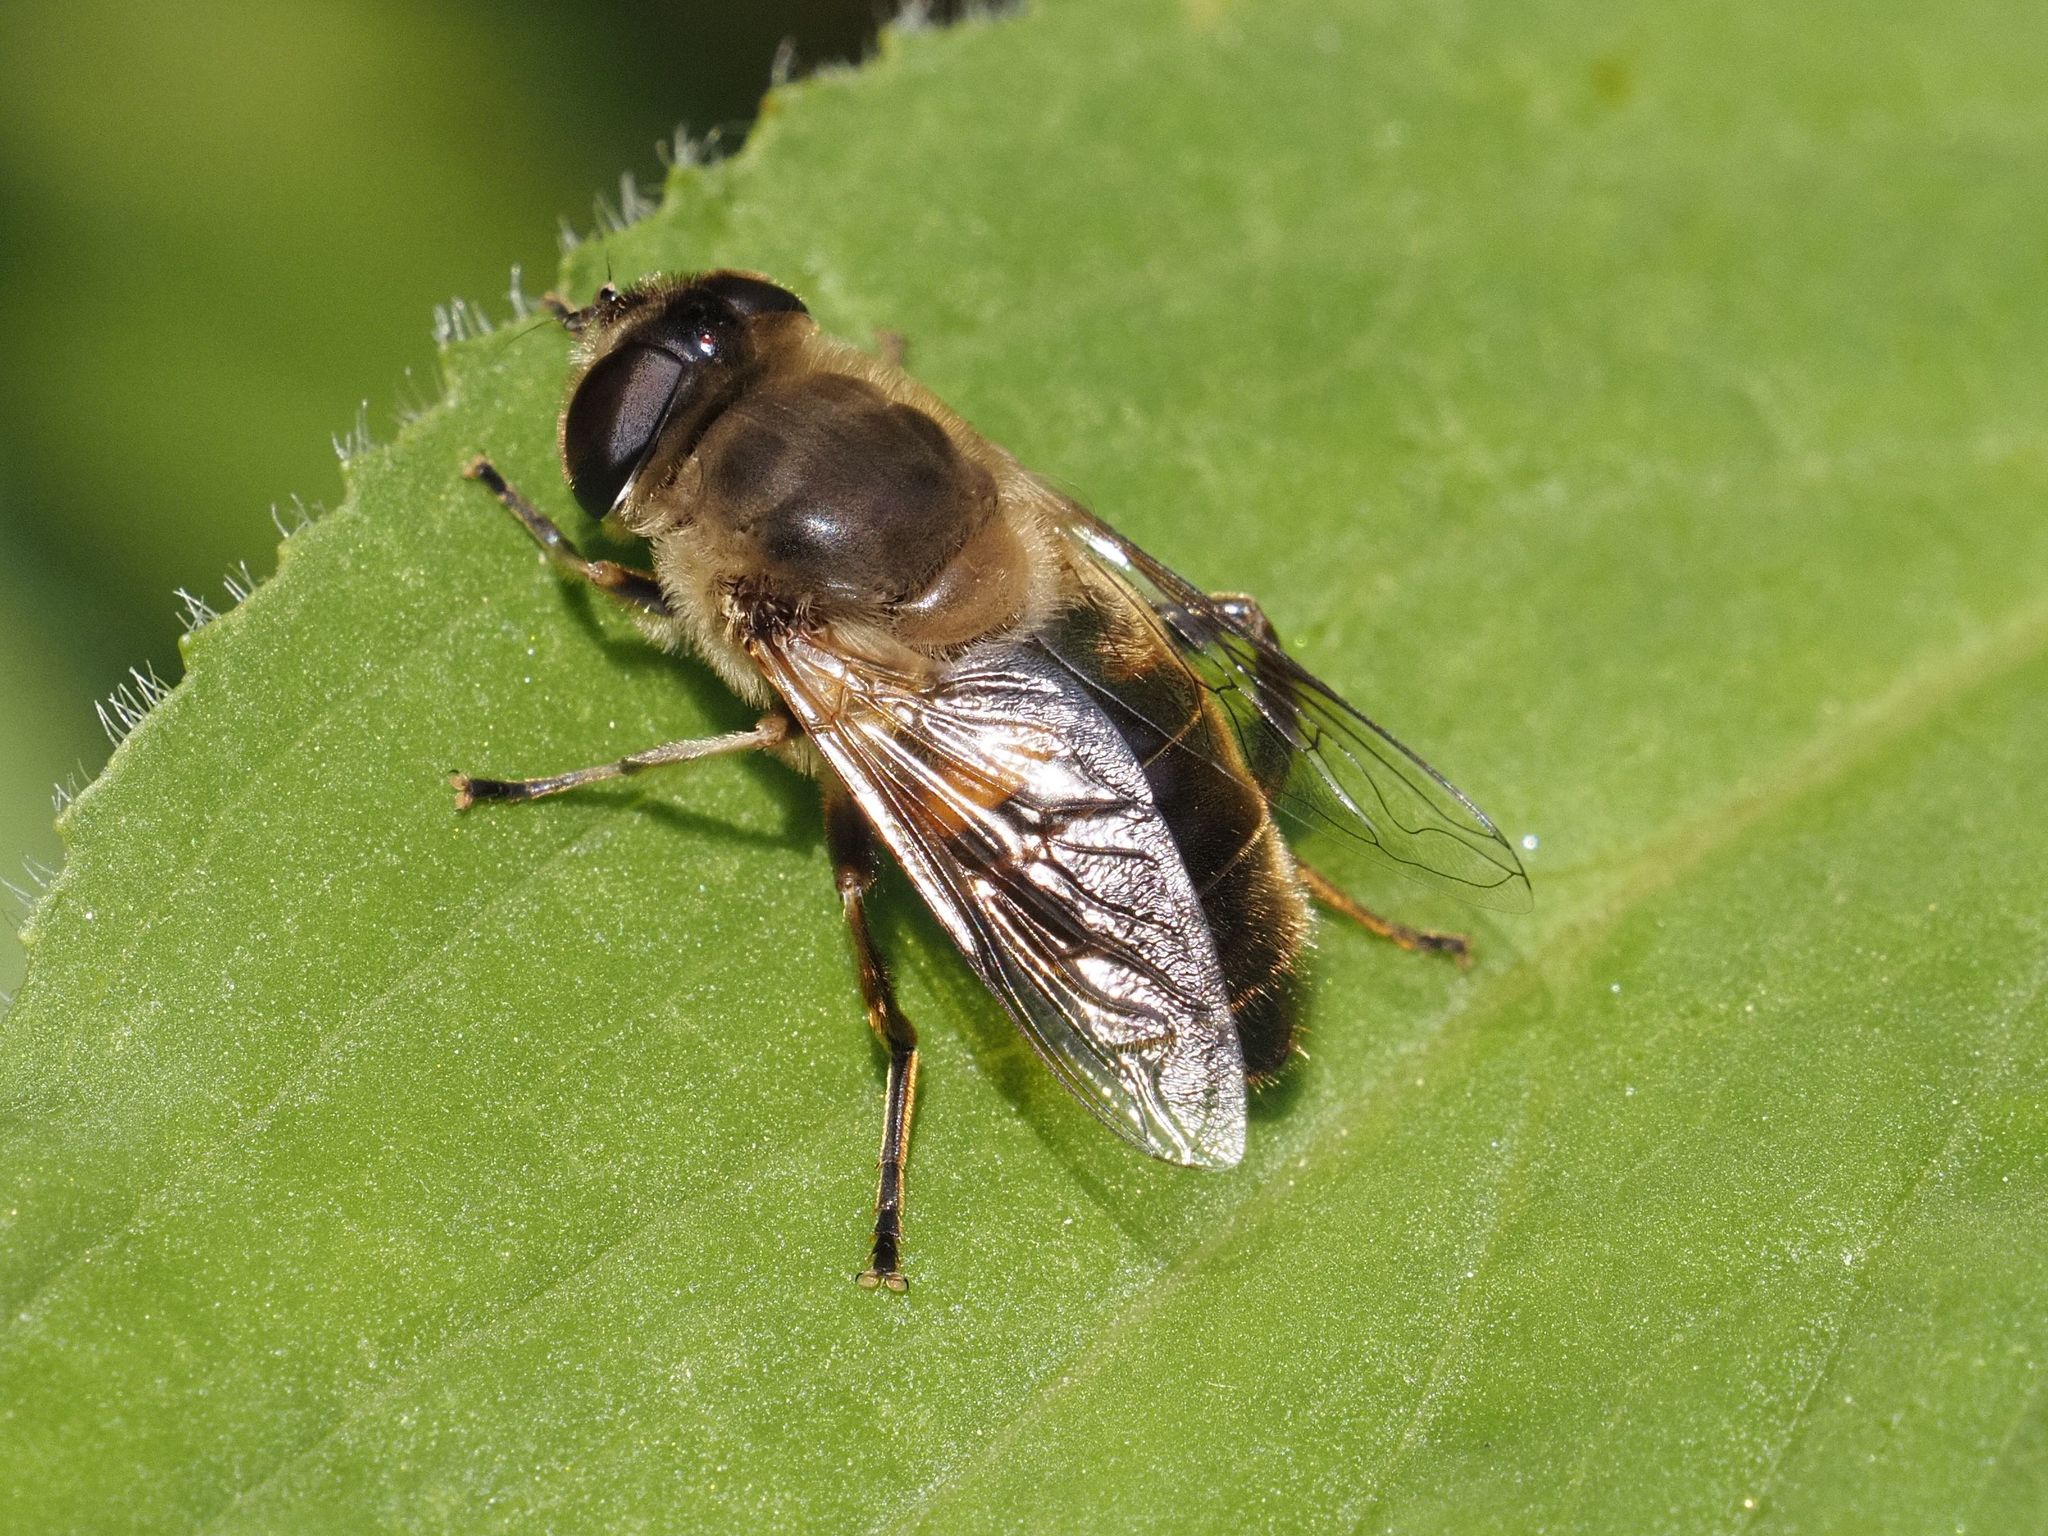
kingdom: Animalia
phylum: Arthropoda
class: Insecta
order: Diptera
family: Syrphidae
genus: Eristalis
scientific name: Eristalis tenax
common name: Drone fly
